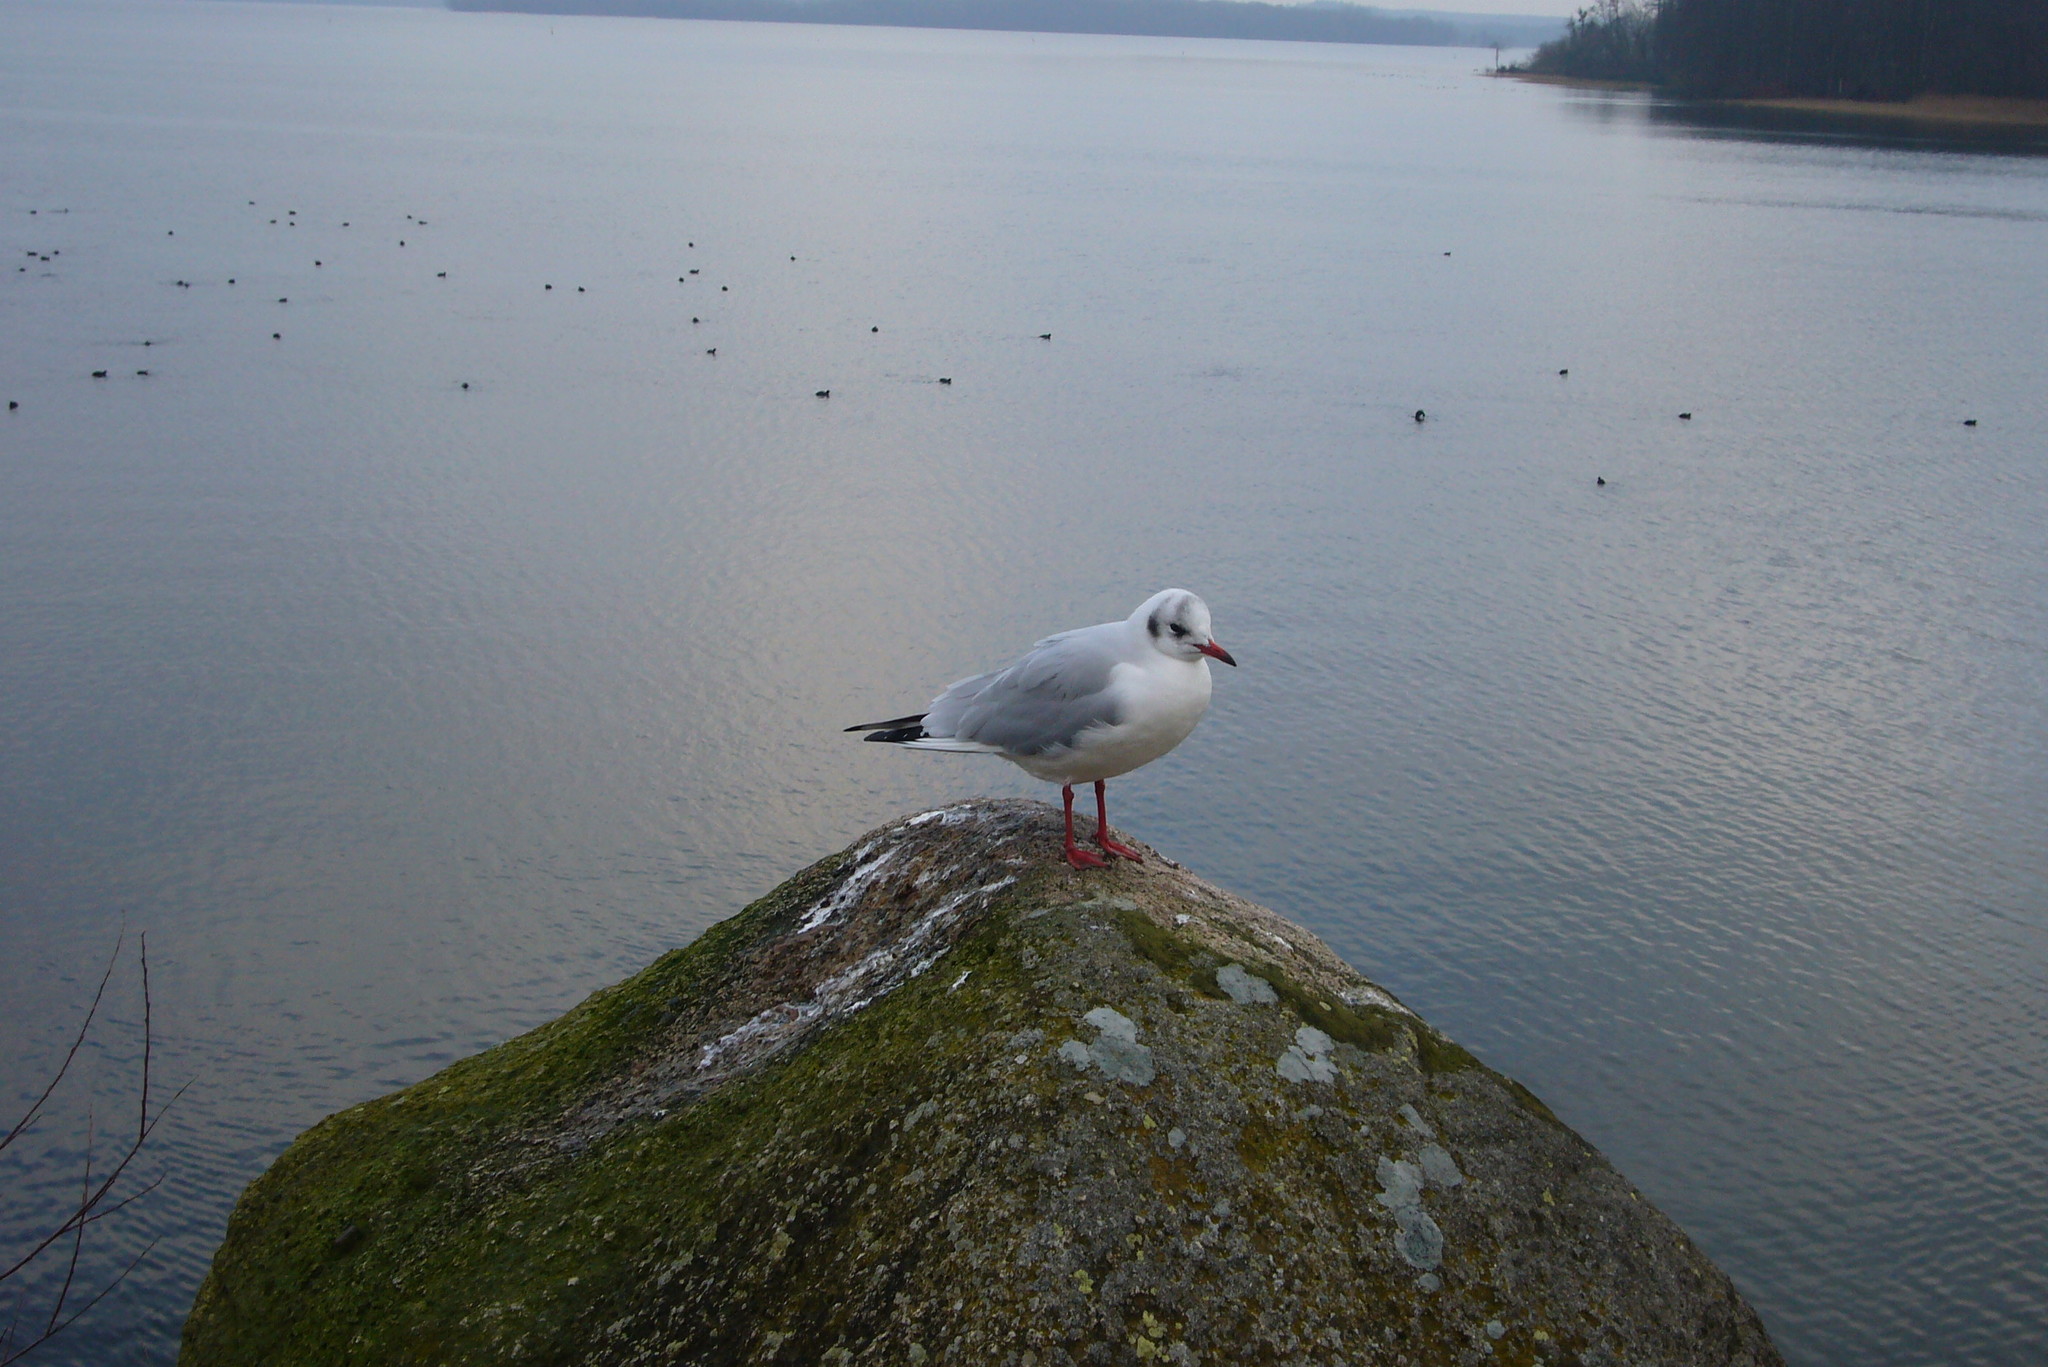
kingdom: Animalia
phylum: Chordata
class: Aves
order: Charadriiformes
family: Laridae
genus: Chroicocephalus
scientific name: Chroicocephalus ridibundus
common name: Black-headed gull
